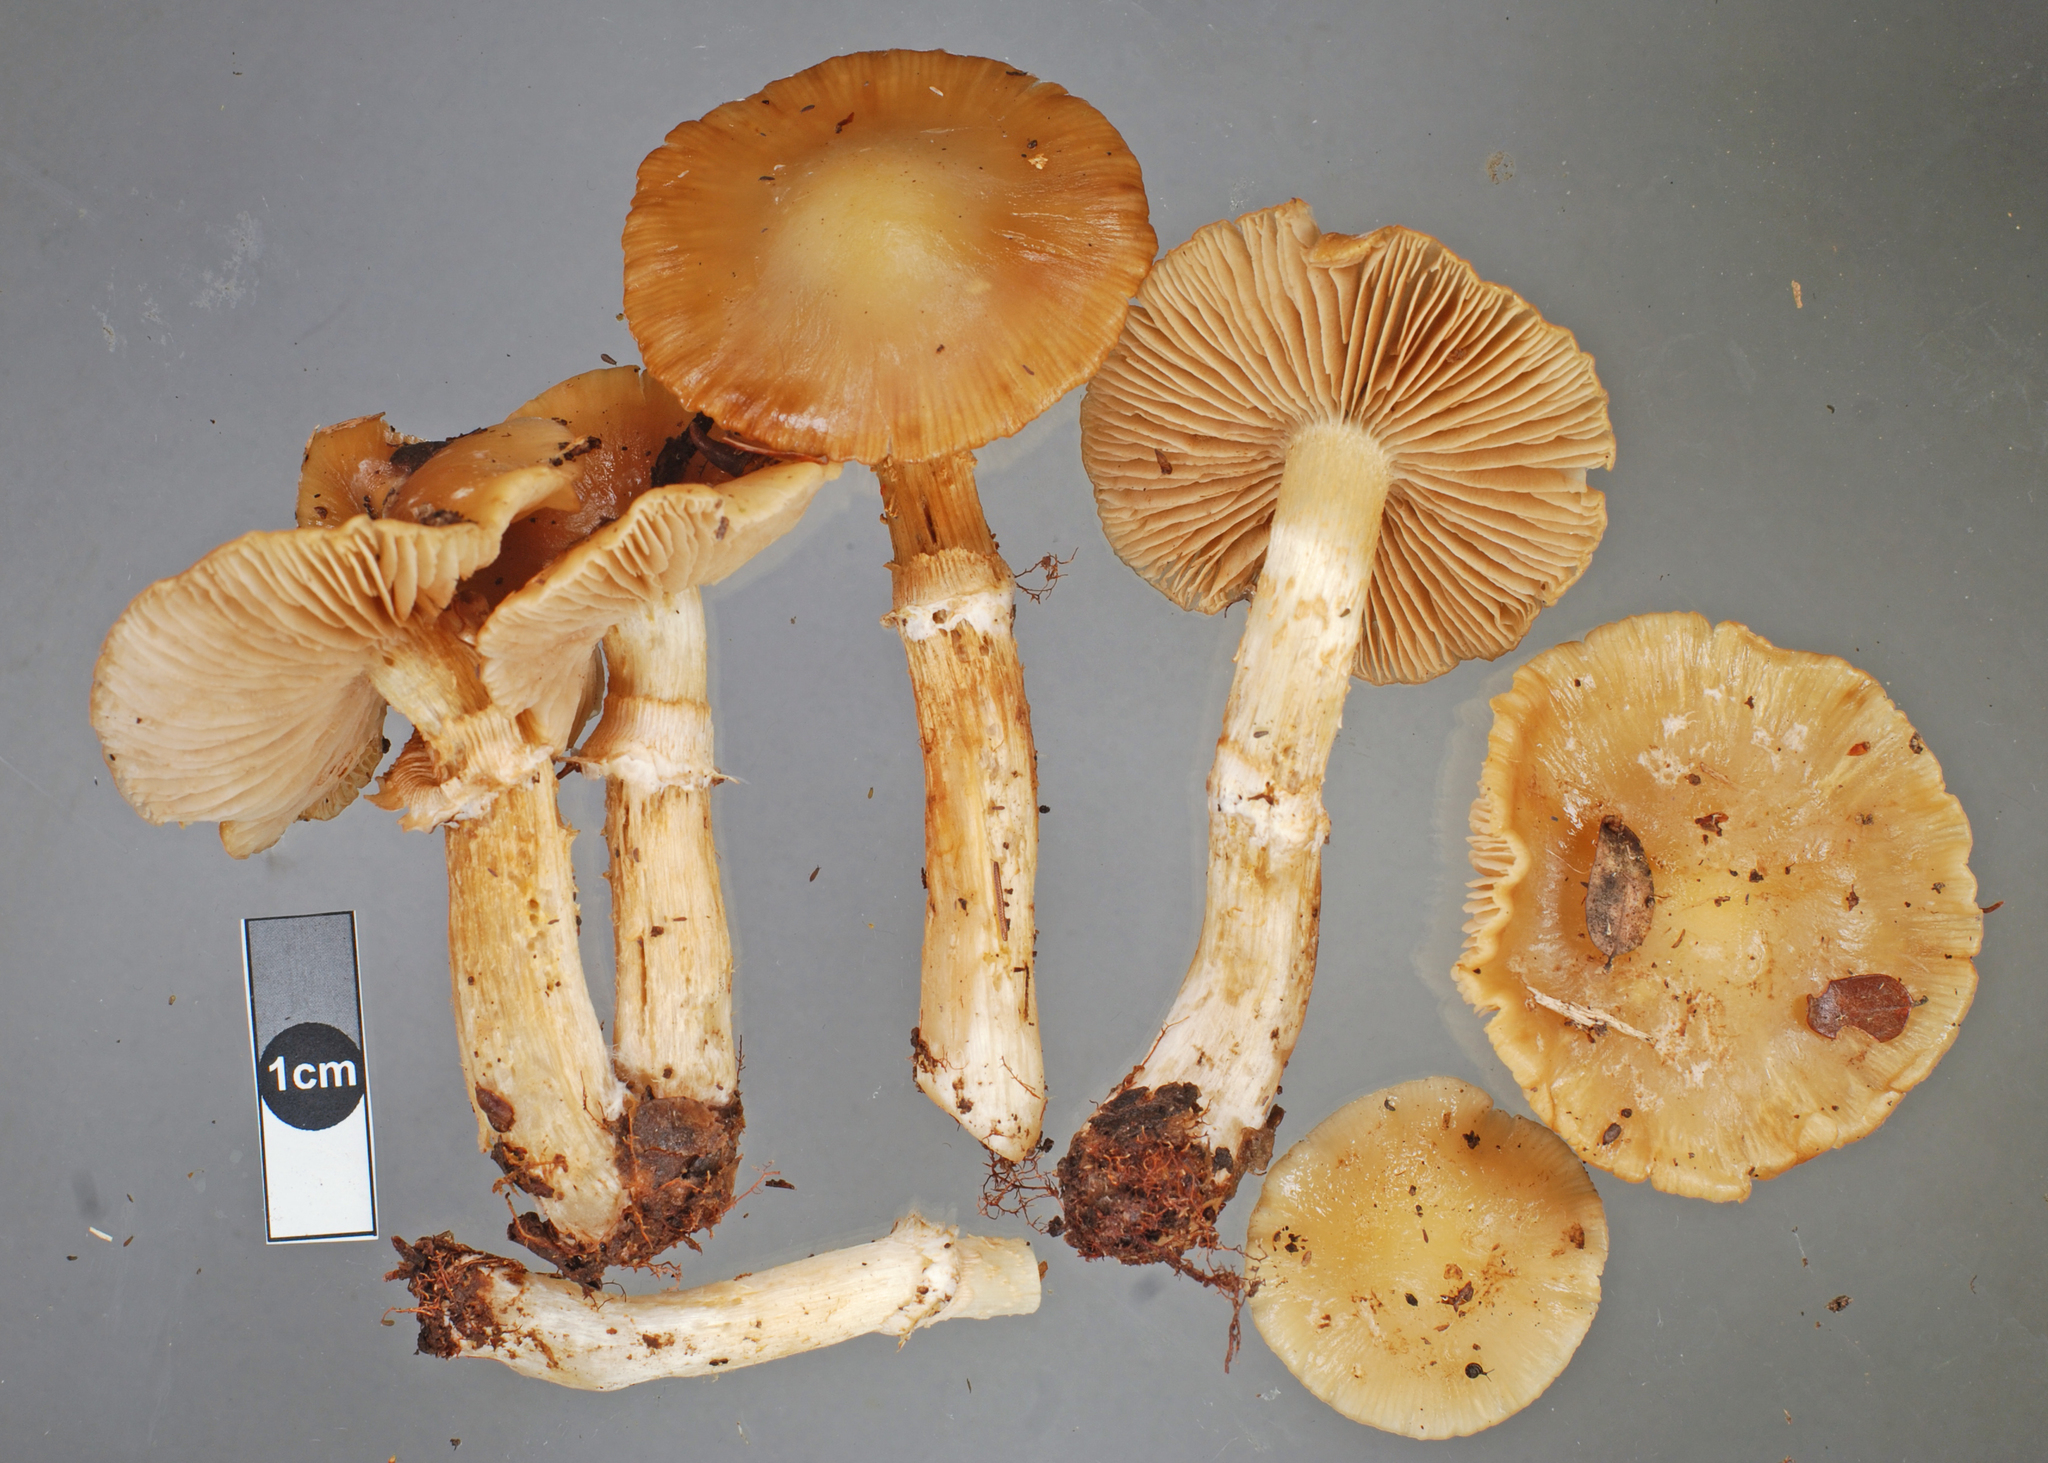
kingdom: Fungi
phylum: Basidiomycota
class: Agaricomycetes
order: Agaricales
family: Cortinariaceae
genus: Cortinarius
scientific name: Cortinarius pseliocaulis
